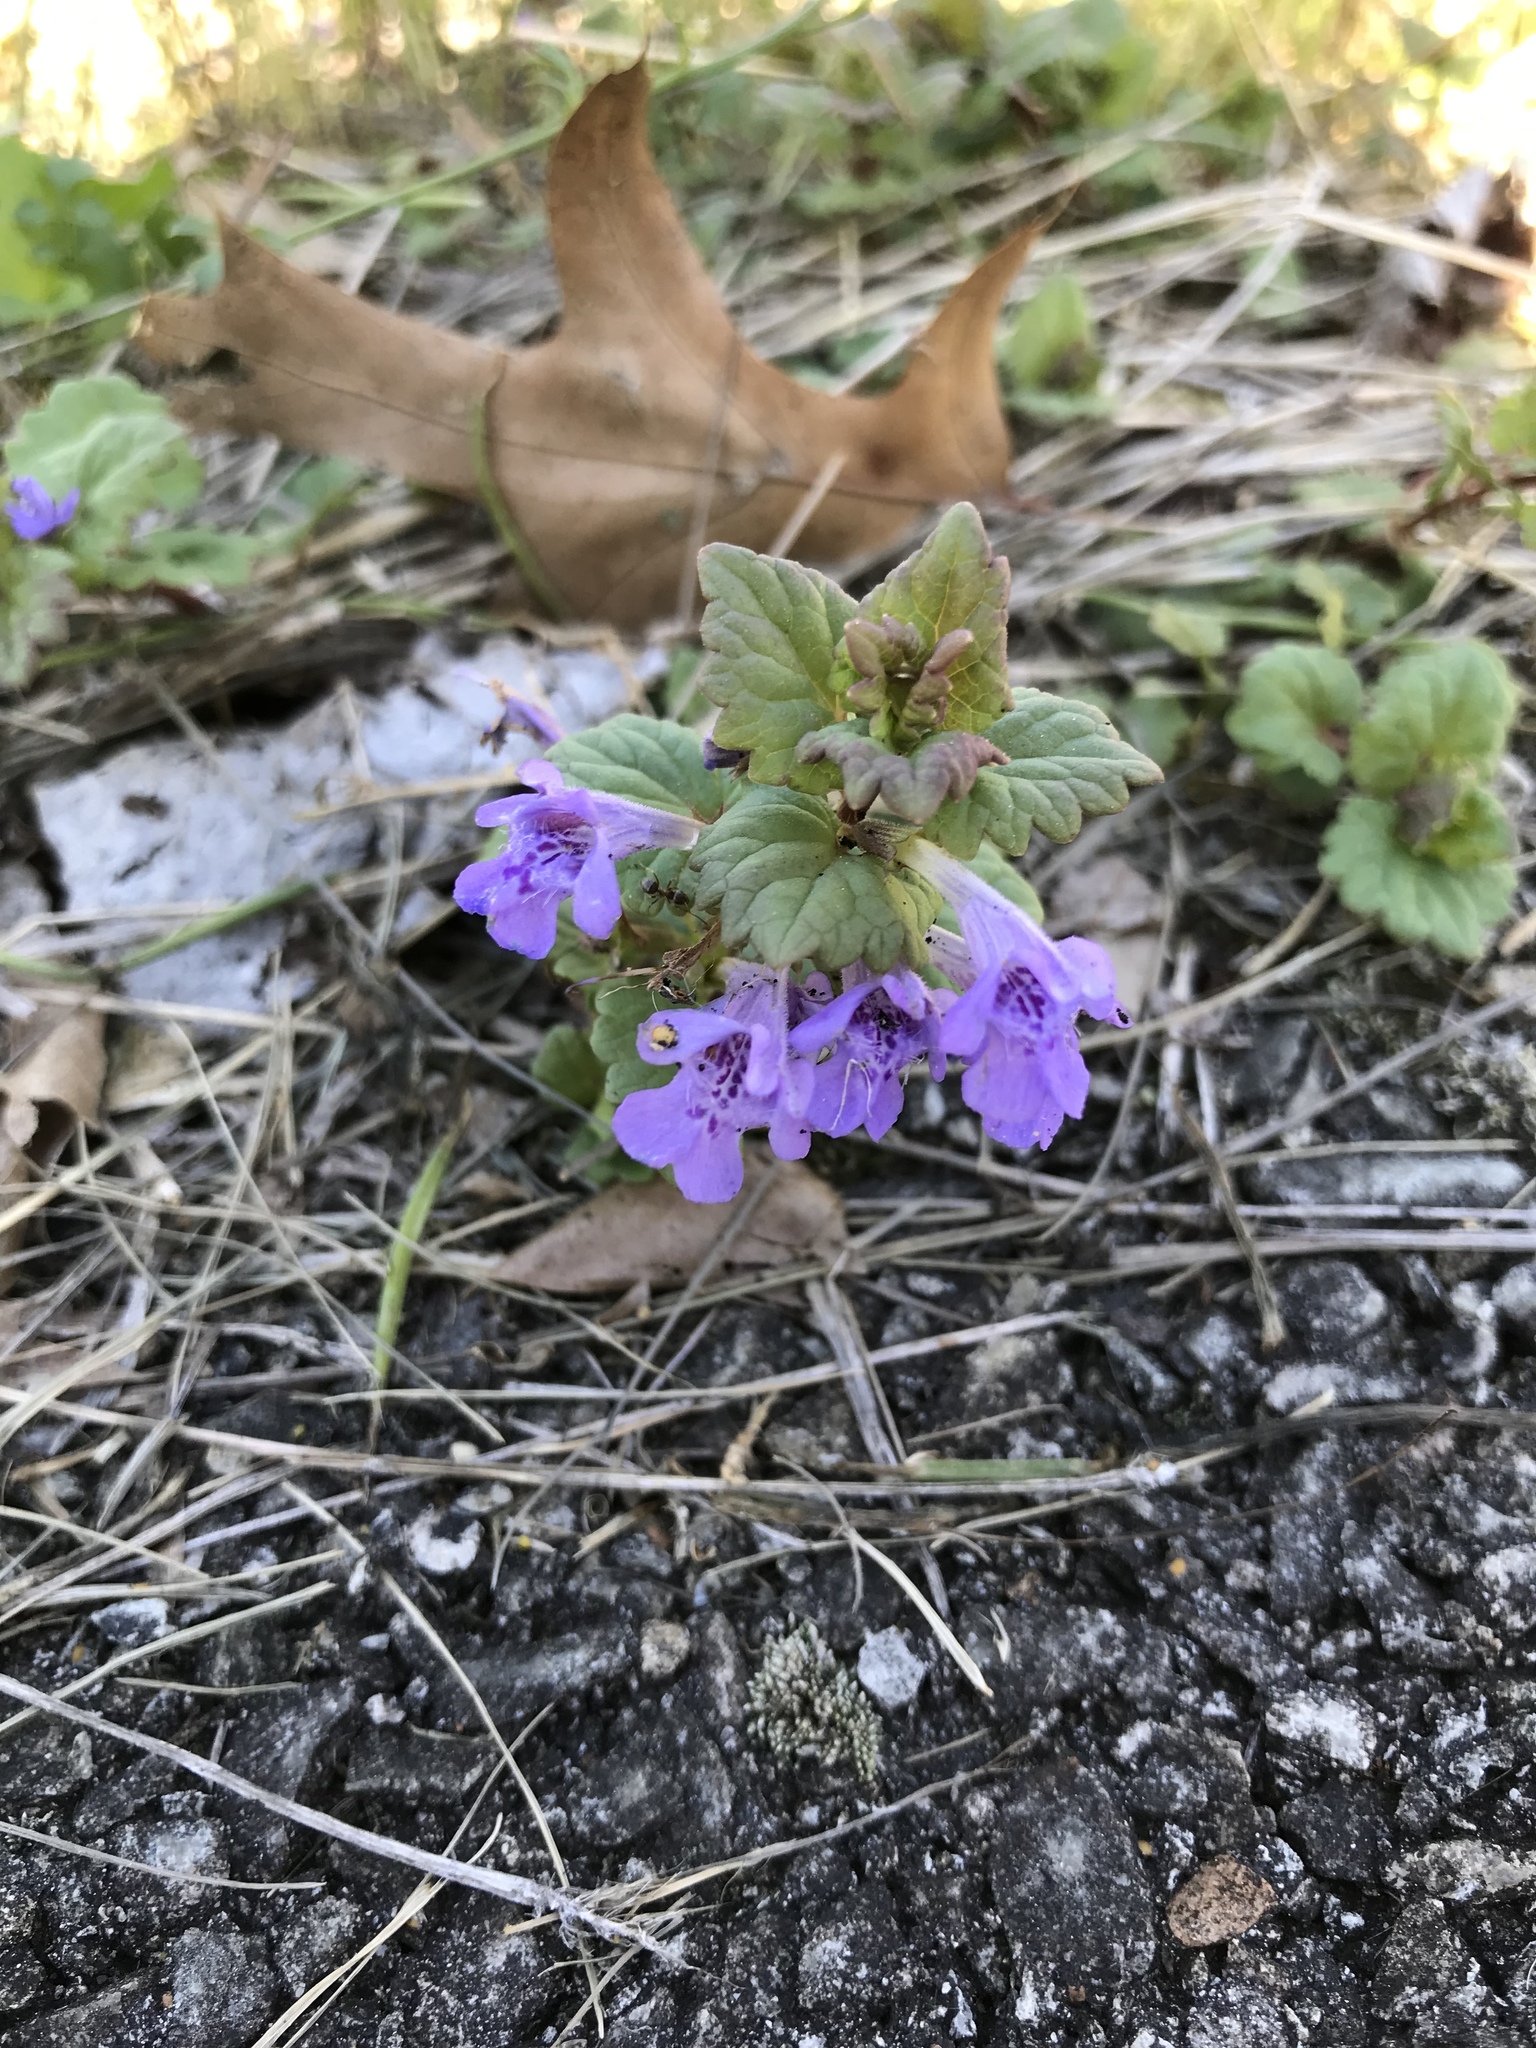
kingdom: Plantae
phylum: Tracheophyta
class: Magnoliopsida
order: Lamiales
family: Lamiaceae
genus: Glechoma
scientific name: Glechoma hederacea
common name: Ground ivy
